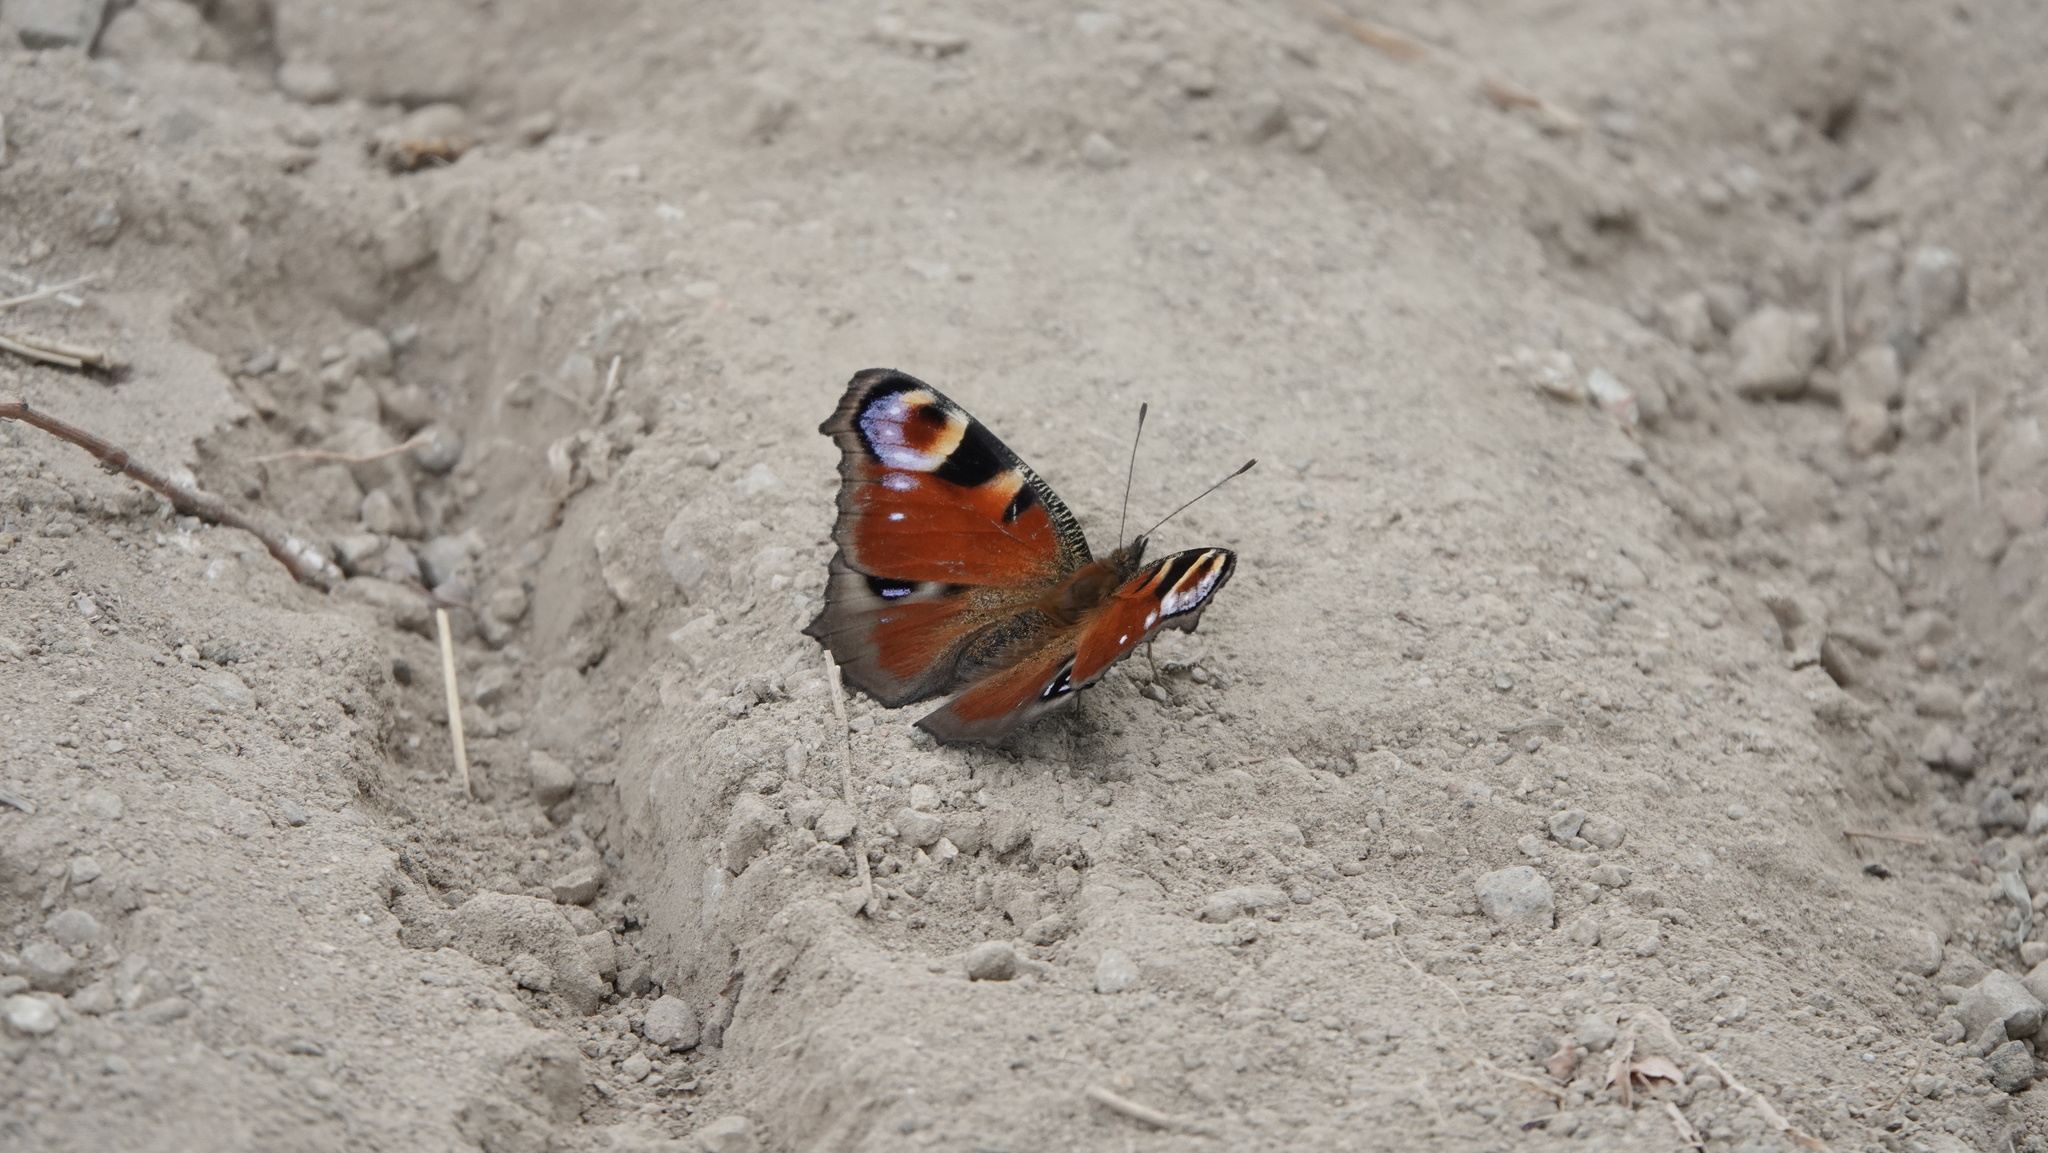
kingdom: Animalia
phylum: Arthropoda
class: Insecta
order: Lepidoptera
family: Nymphalidae
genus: Aglais
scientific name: Aglais io
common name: Peacock
